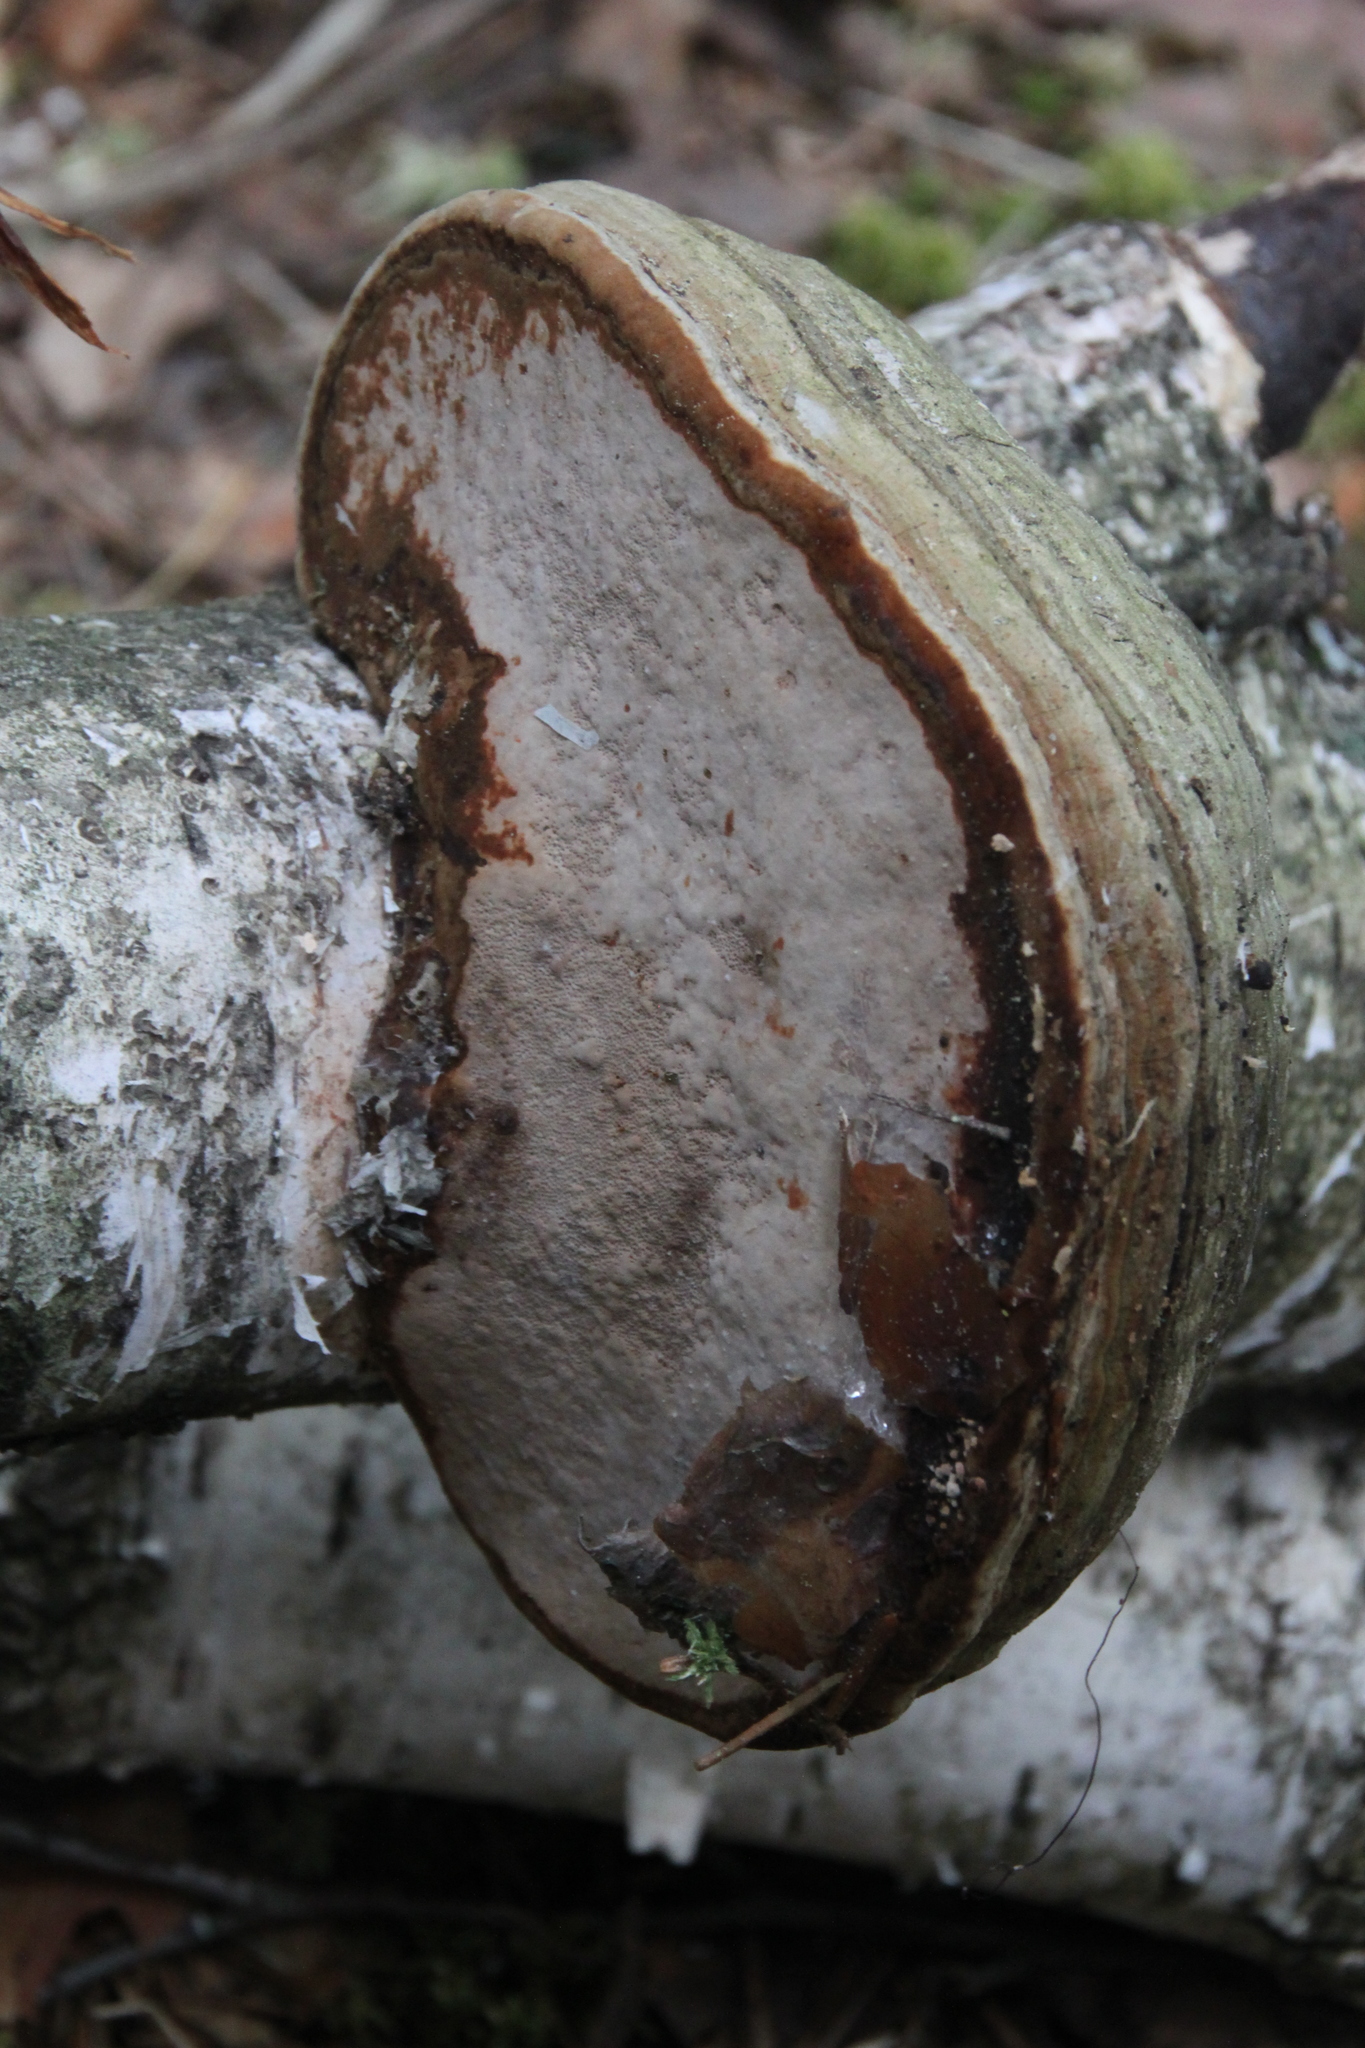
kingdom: Fungi
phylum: Basidiomycota
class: Agaricomycetes
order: Polyporales
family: Polyporaceae
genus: Fomes
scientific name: Fomes fomentarius
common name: Hoof fungus
